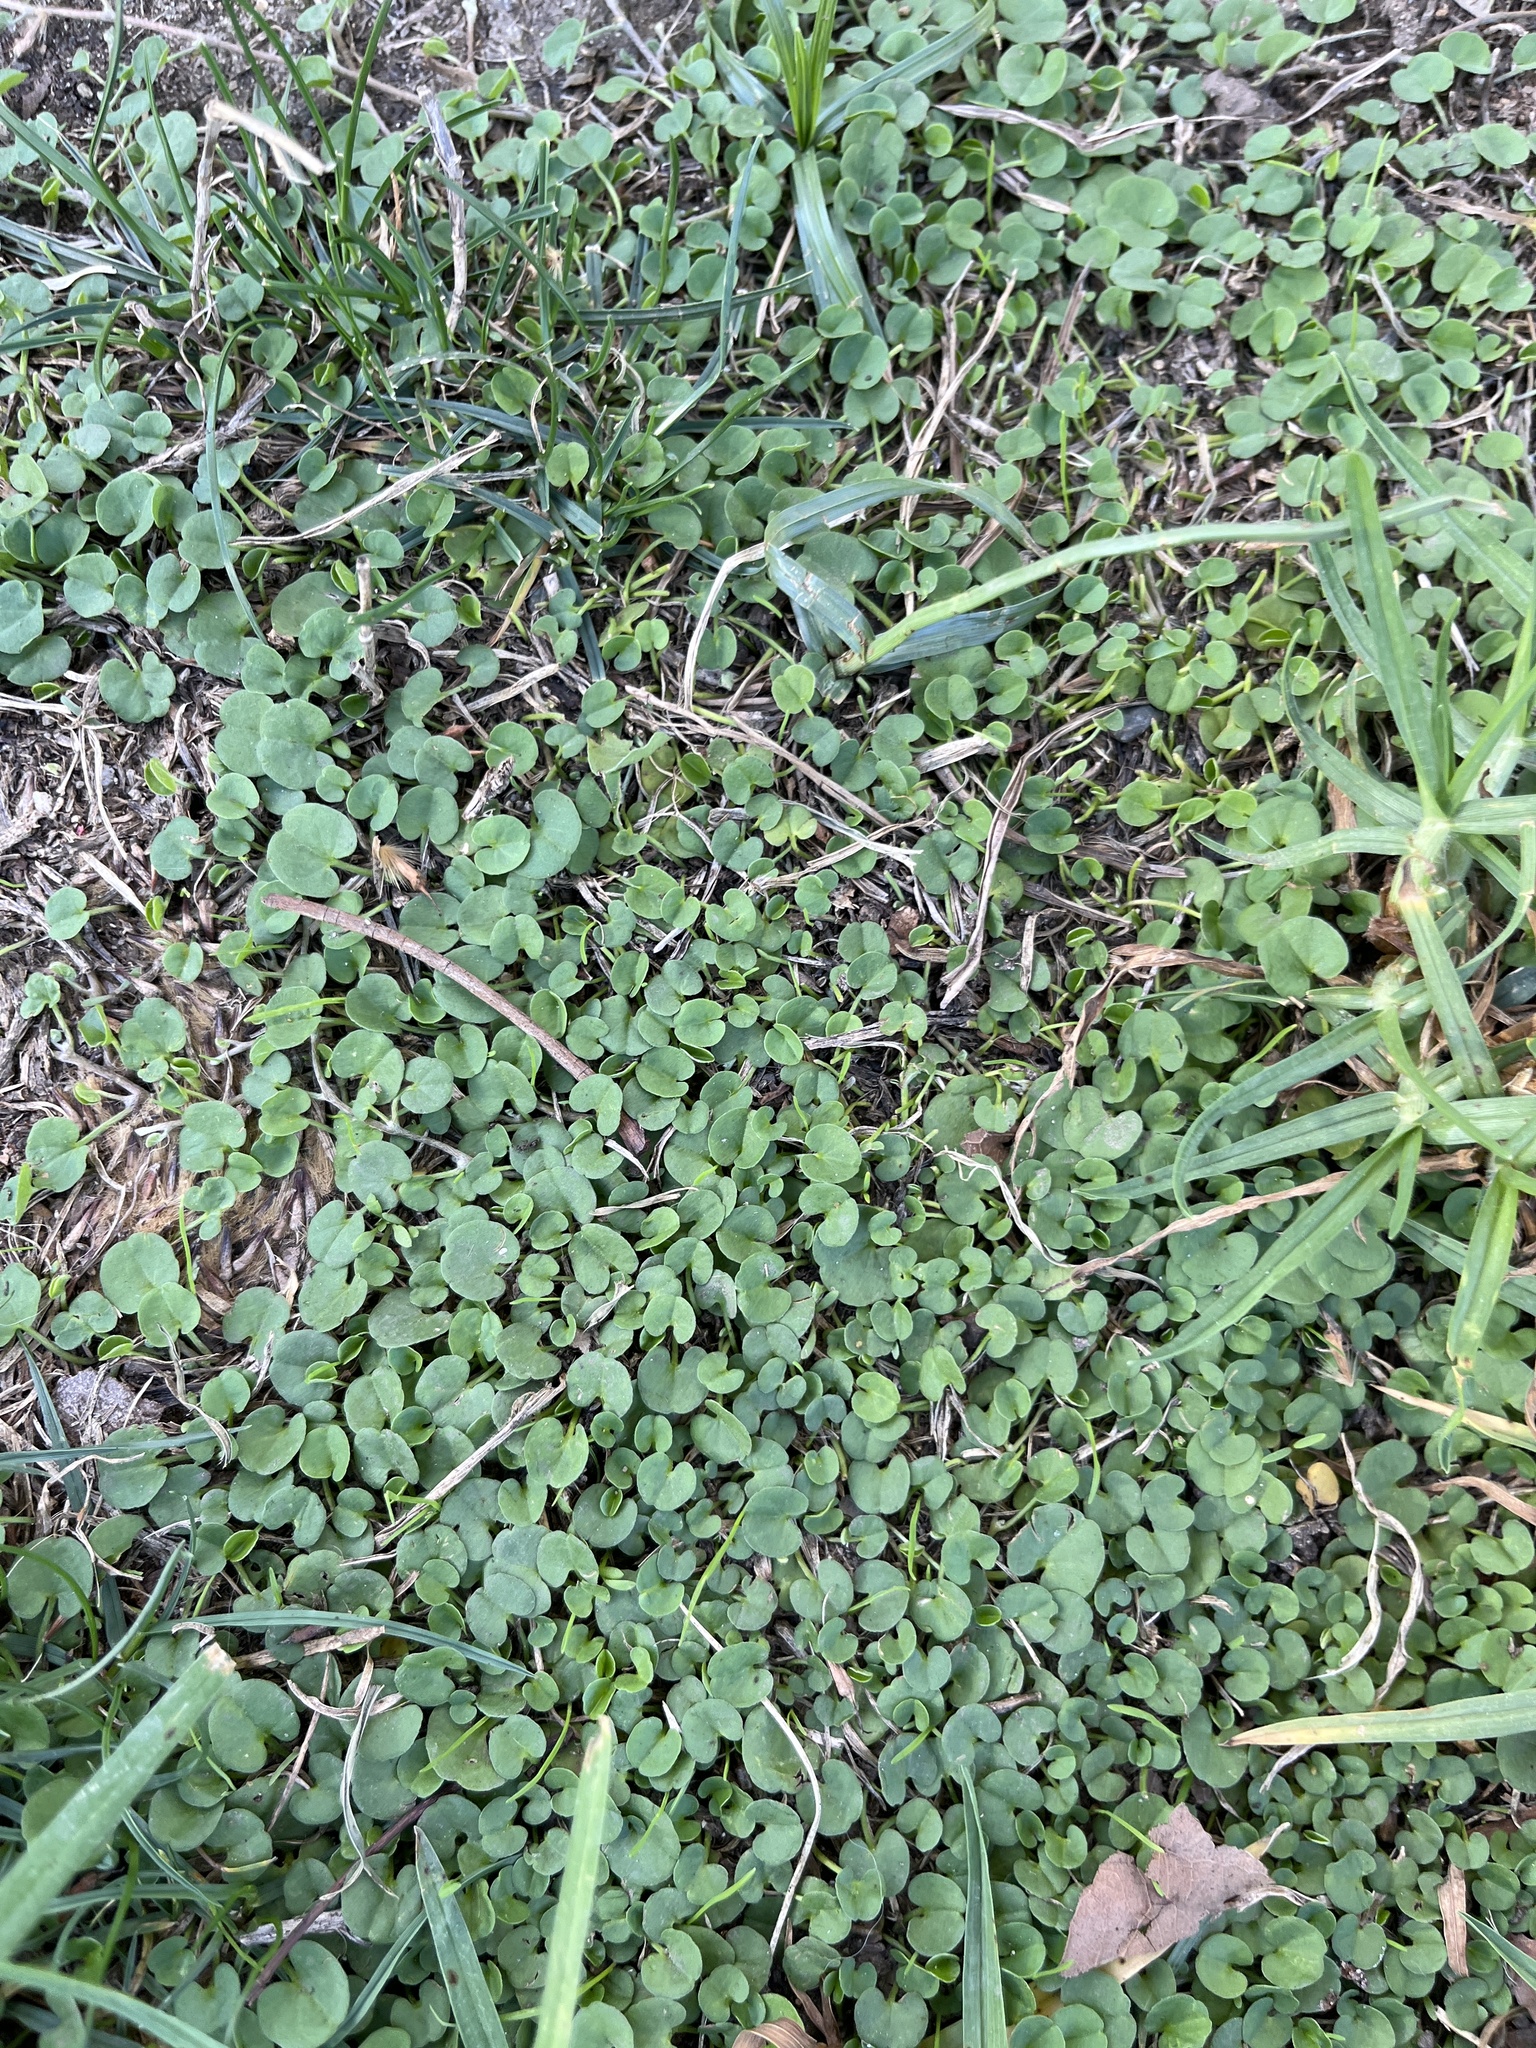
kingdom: Plantae
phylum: Tracheophyta
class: Magnoliopsida
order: Solanales
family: Convolvulaceae
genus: Dichondra
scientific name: Dichondra micrantha
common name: Kidneyweed
